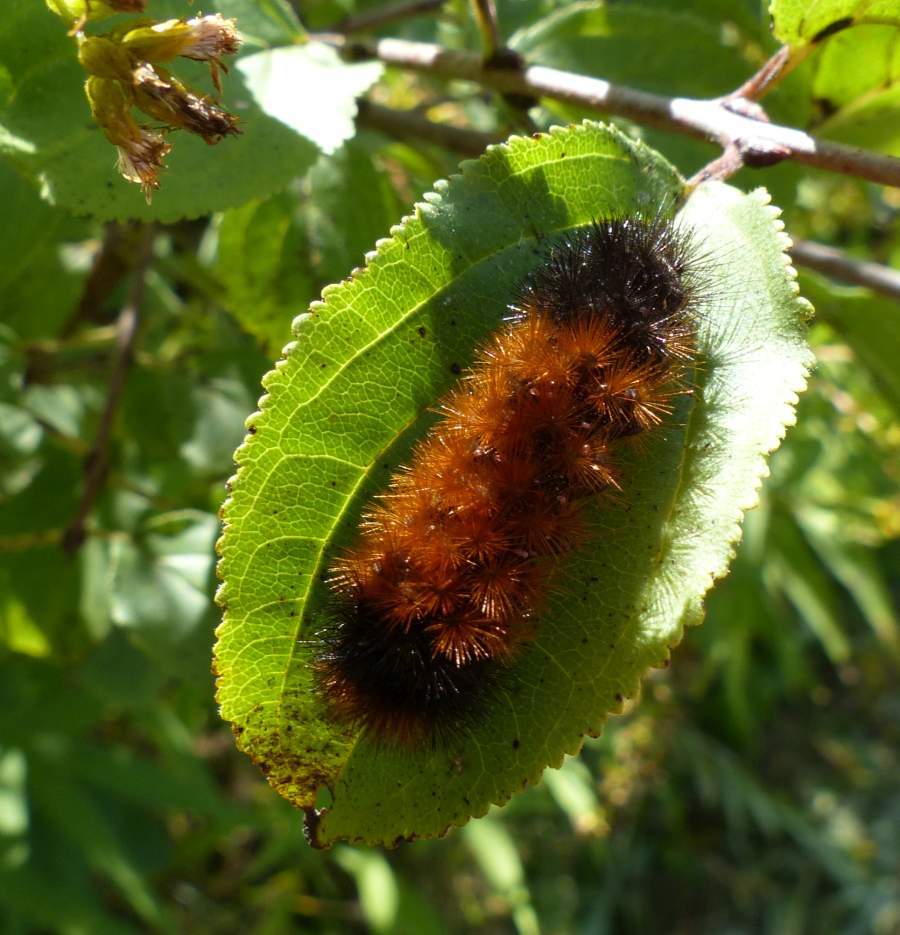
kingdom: Animalia
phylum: Arthropoda
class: Insecta
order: Lepidoptera
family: Erebidae
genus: Pyrrharctia
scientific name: Pyrrharctia isabella
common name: Isabella tiger moth
